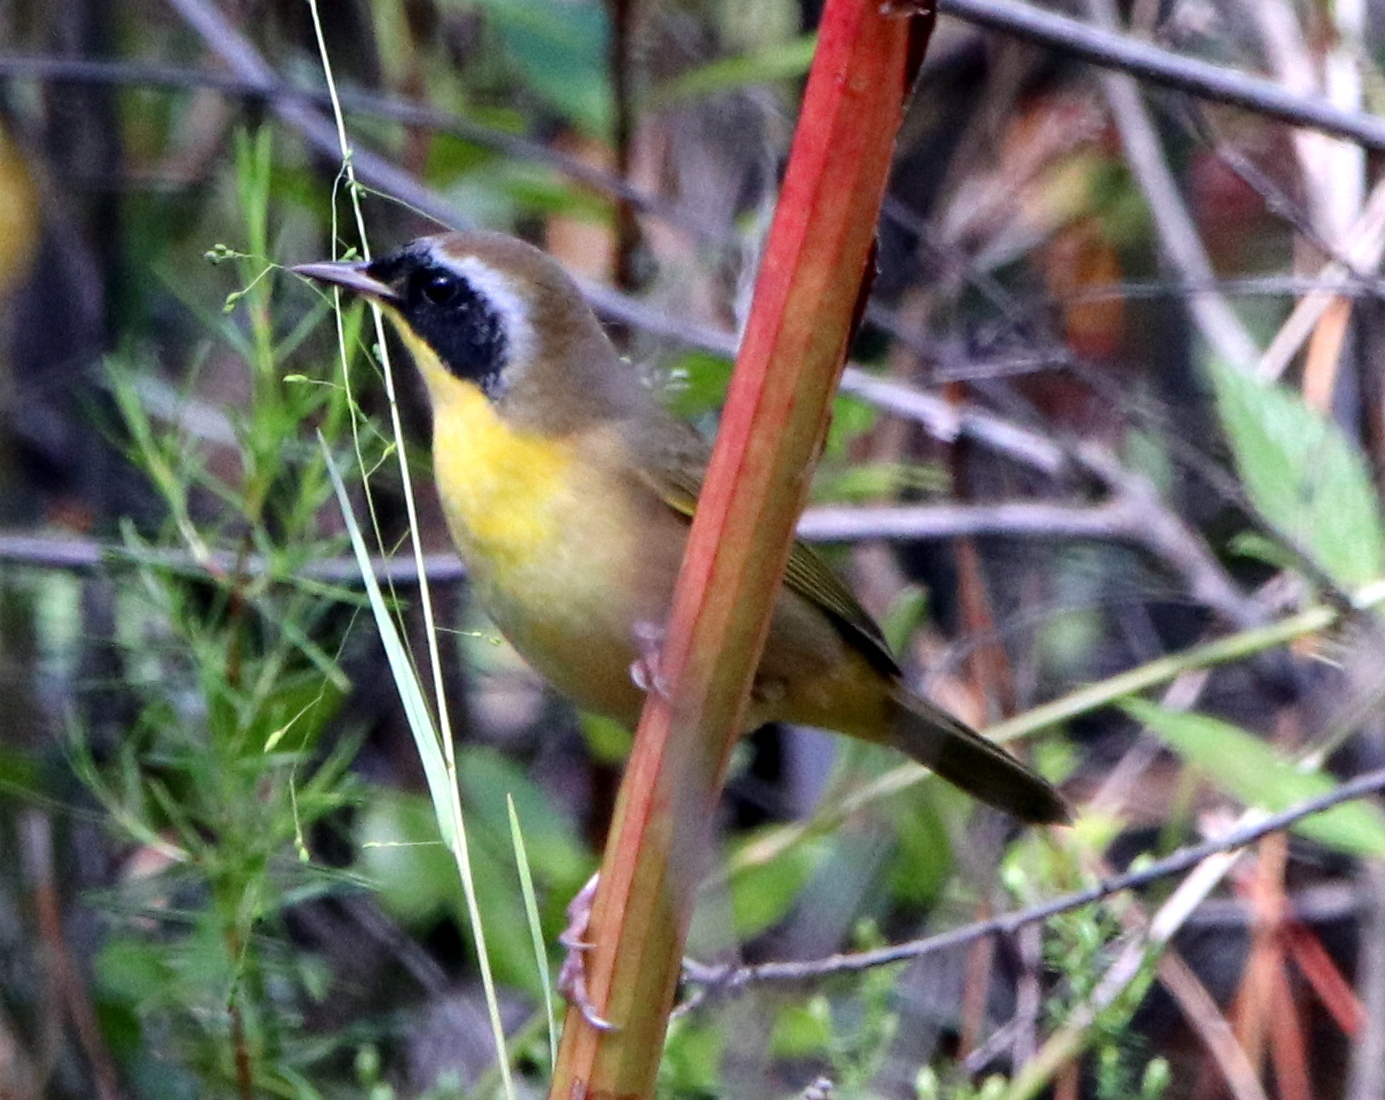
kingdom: Animalia
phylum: Chordata
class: Aves
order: Passeriformes
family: Parulidae
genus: Geothlypis
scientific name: Geothlypis trichas
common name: Common yellowthroat
